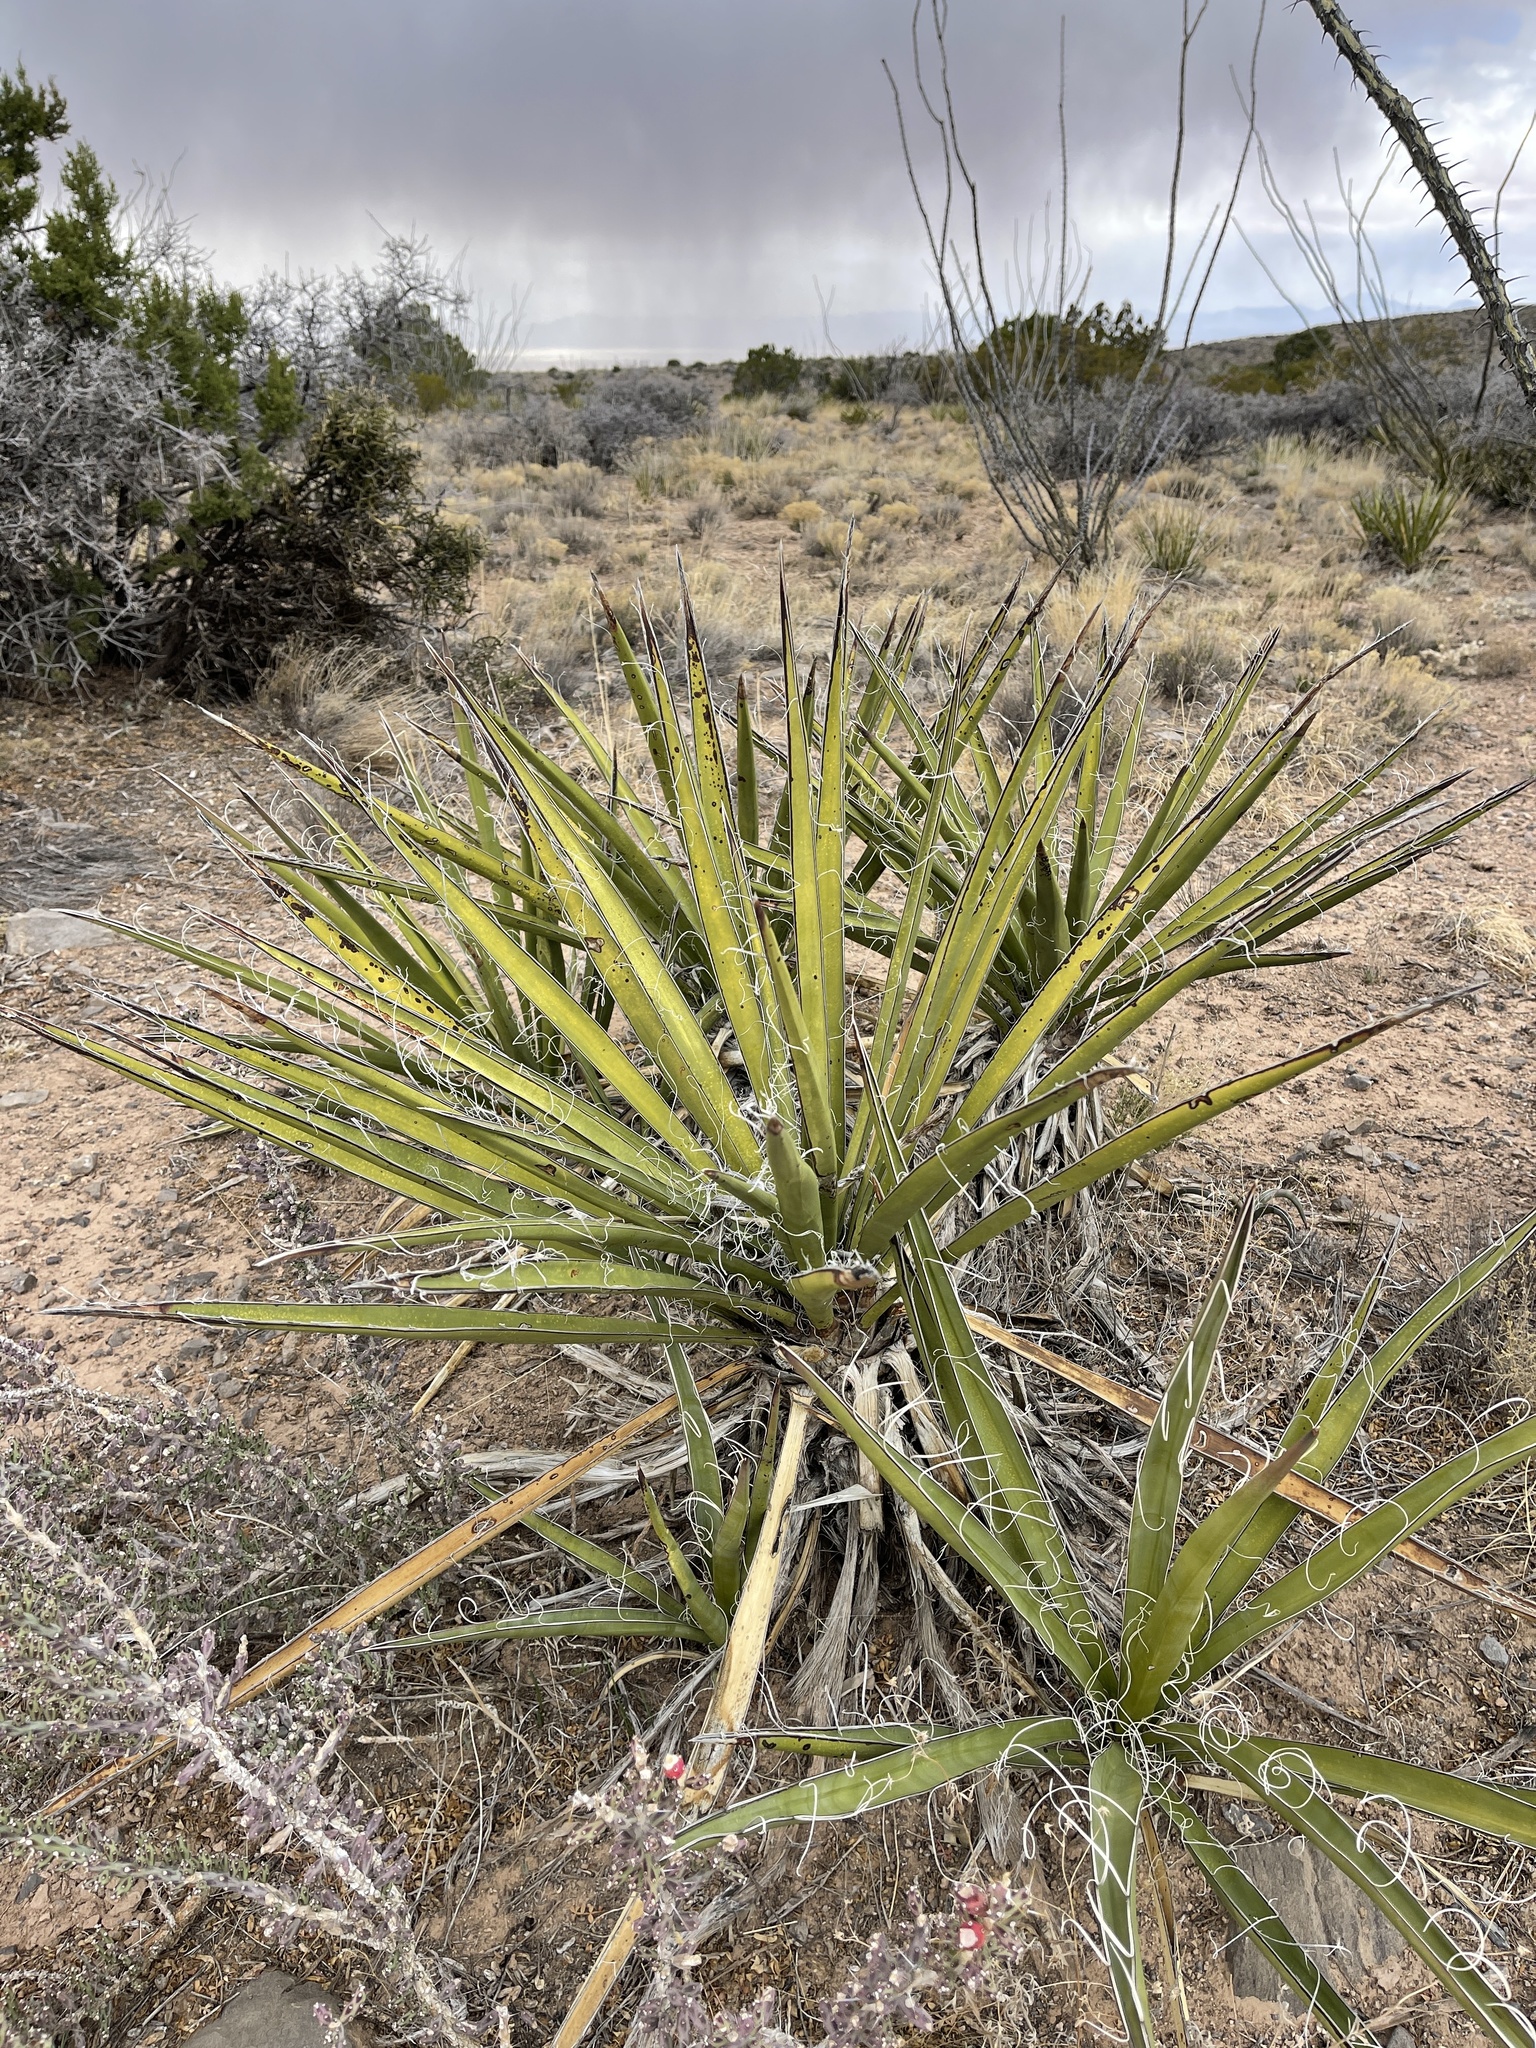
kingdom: Plantae
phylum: Tracheophyta
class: Liliopsida
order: Asparagales
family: Asparagaceae
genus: Yucca
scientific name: Yucca baccata
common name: Banana yucca
